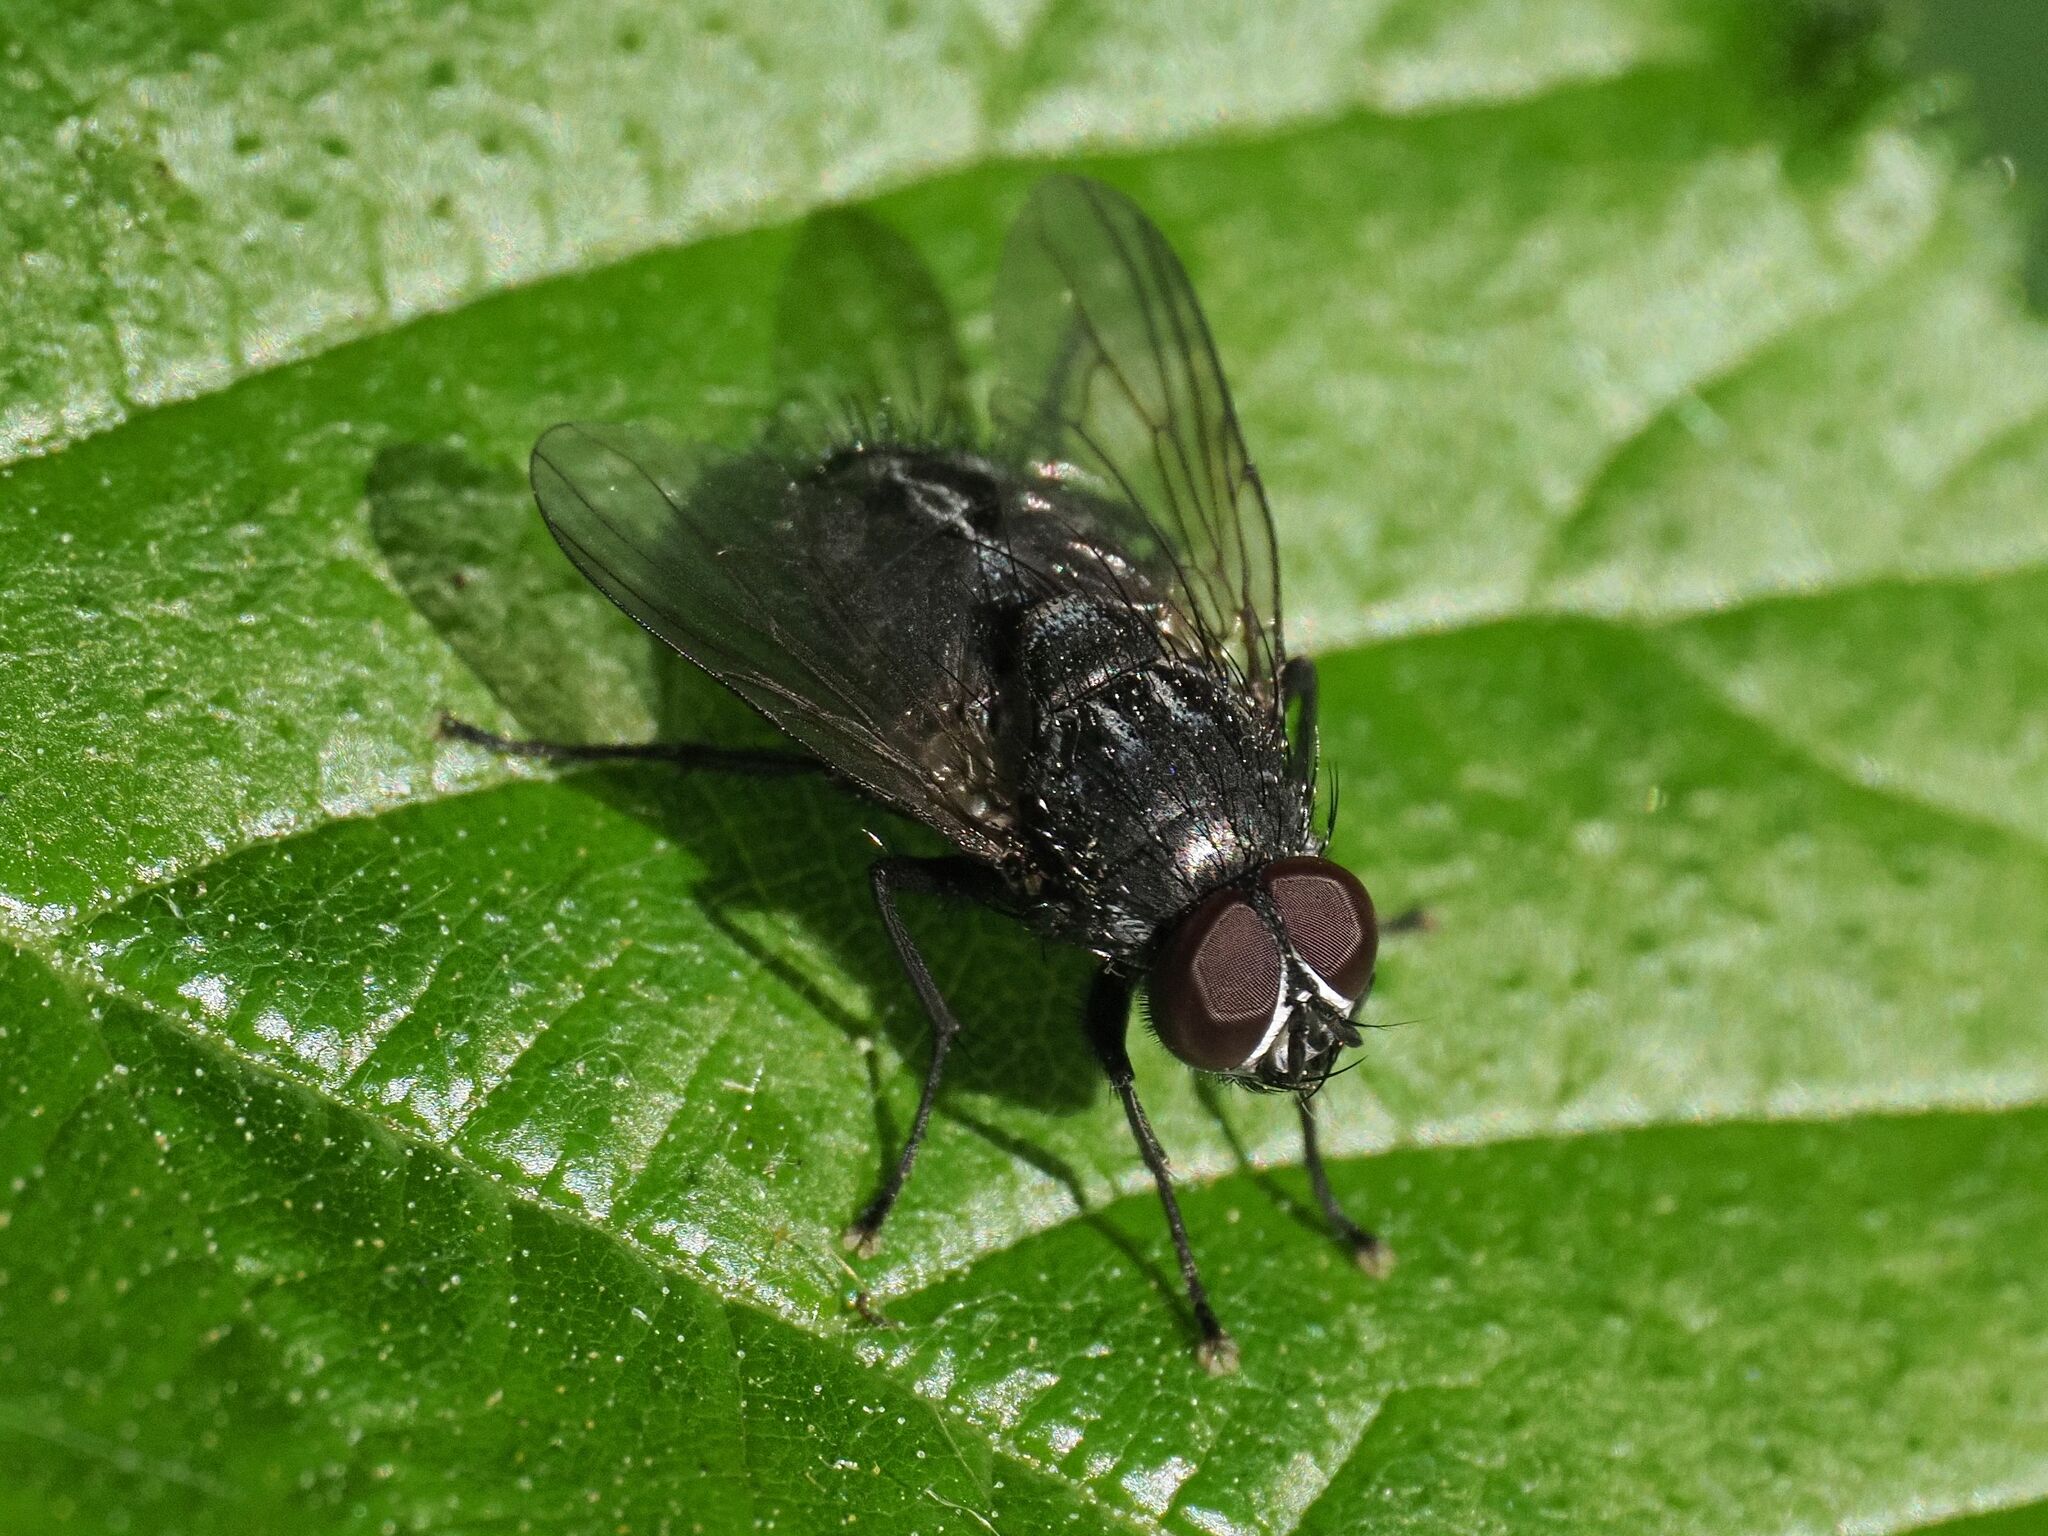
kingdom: Animalia
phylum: Arthropoda
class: Insecta
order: Diptera
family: Muscidae
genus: Muscina
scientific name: Muscina levida
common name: House fly
